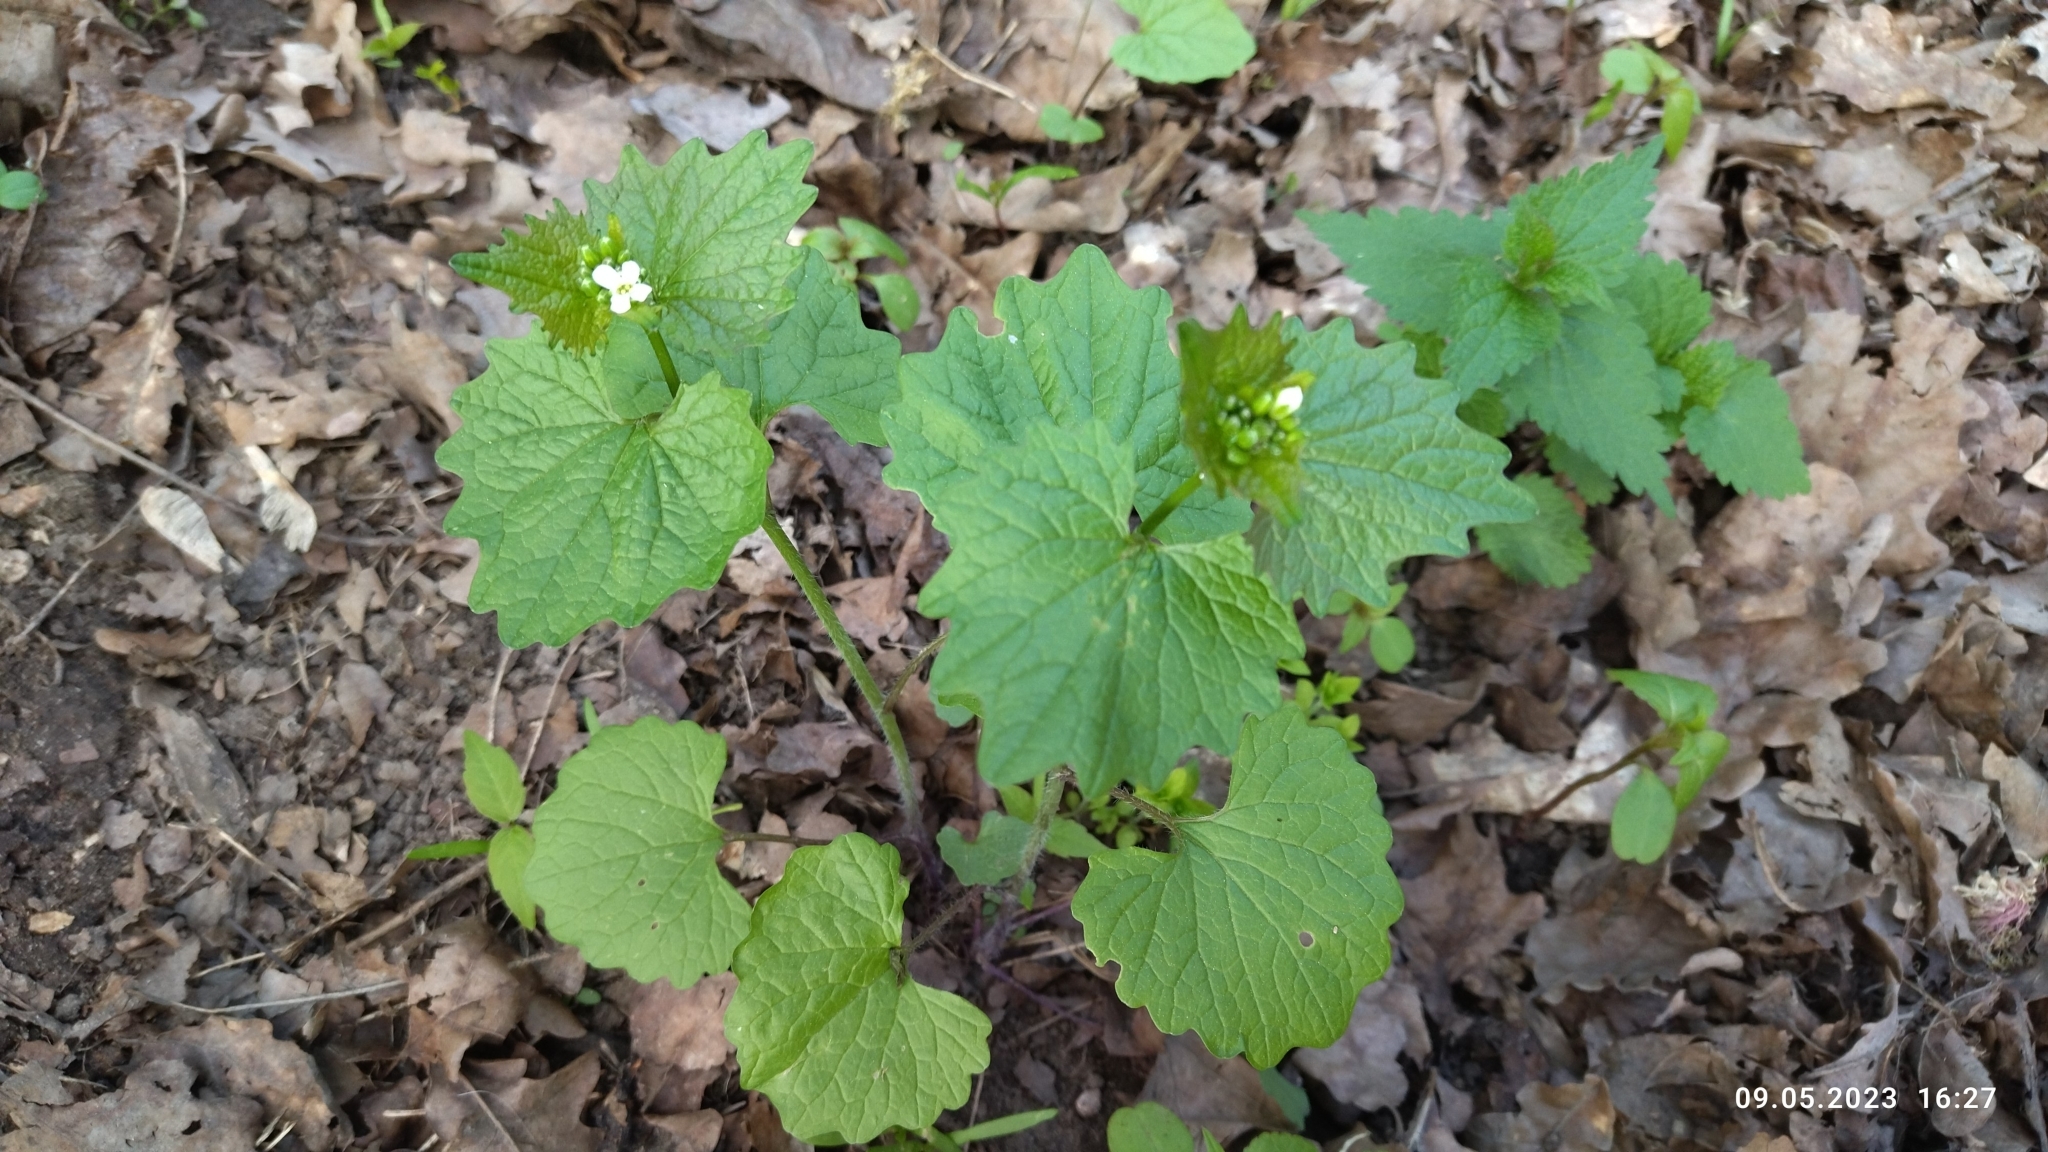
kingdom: Plantae
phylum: Tracheophyta
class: Magnoliopsida
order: Brassicales
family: Brassicaceae
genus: Alliaria
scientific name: Alliaria petiolata
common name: Garlic mustard
